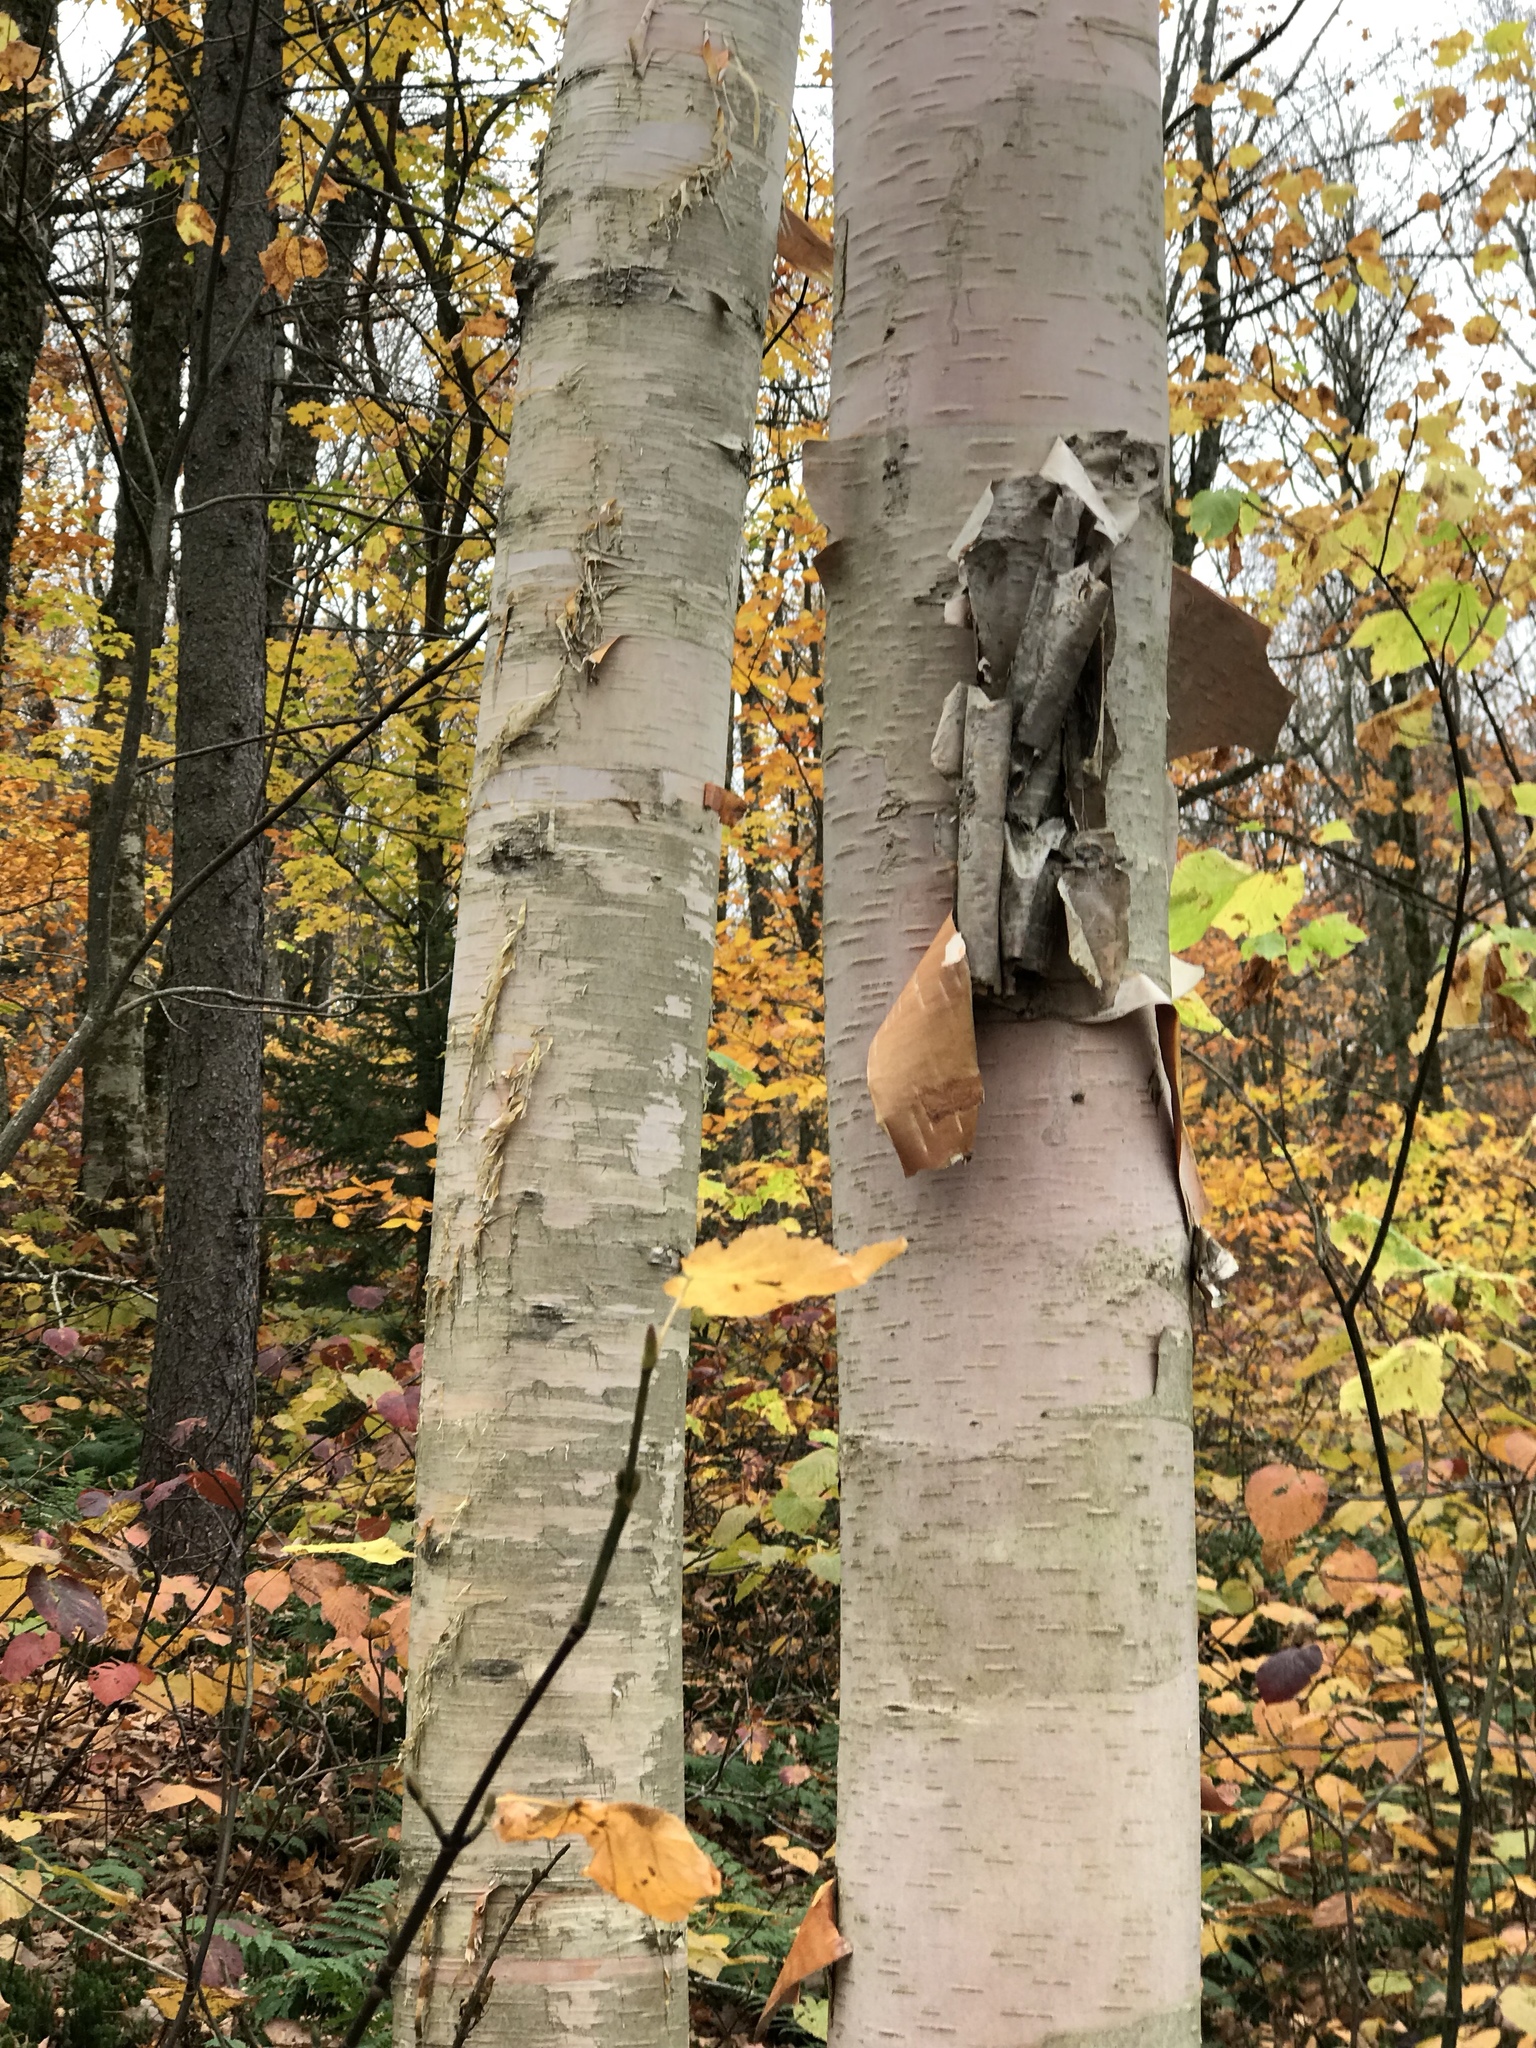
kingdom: Plantae
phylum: Tracheophyta
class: Magnoliopsida
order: Fagales
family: Betulaceae
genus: Betula
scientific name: Betula cordifolia
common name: Mountain white birch
